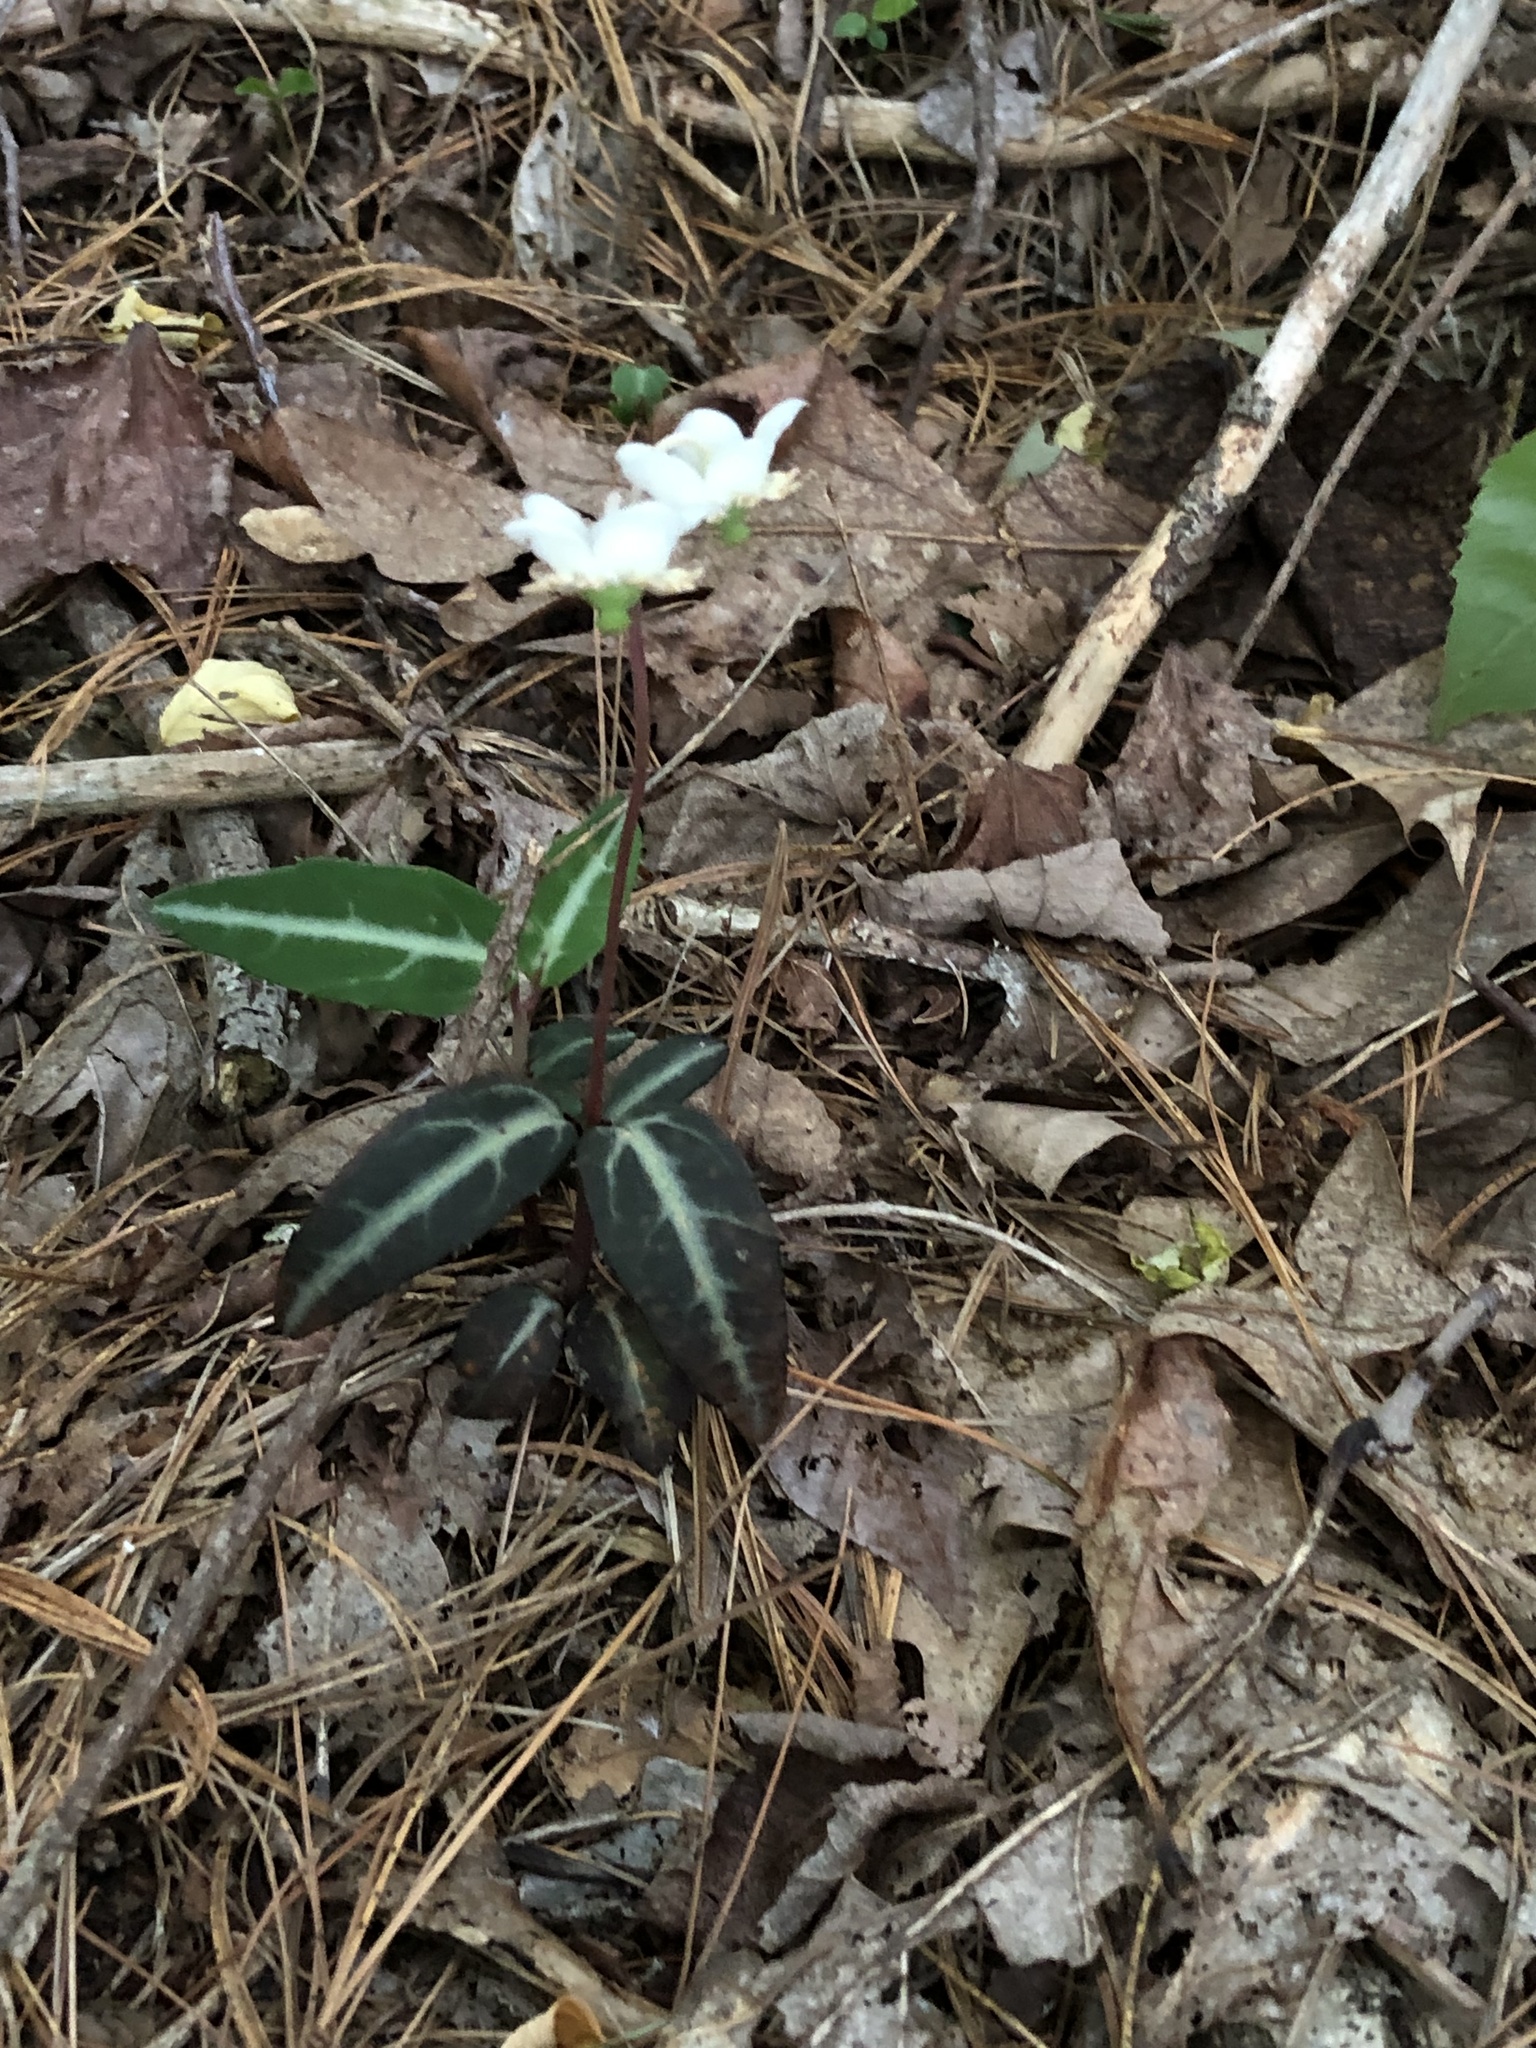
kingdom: Plantae
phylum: Tracheophyta
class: Magnoliopsida
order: Ericales
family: Ericaceae
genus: Chimaphila
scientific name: Chimaphila maculata
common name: Spotted pipsissewa
